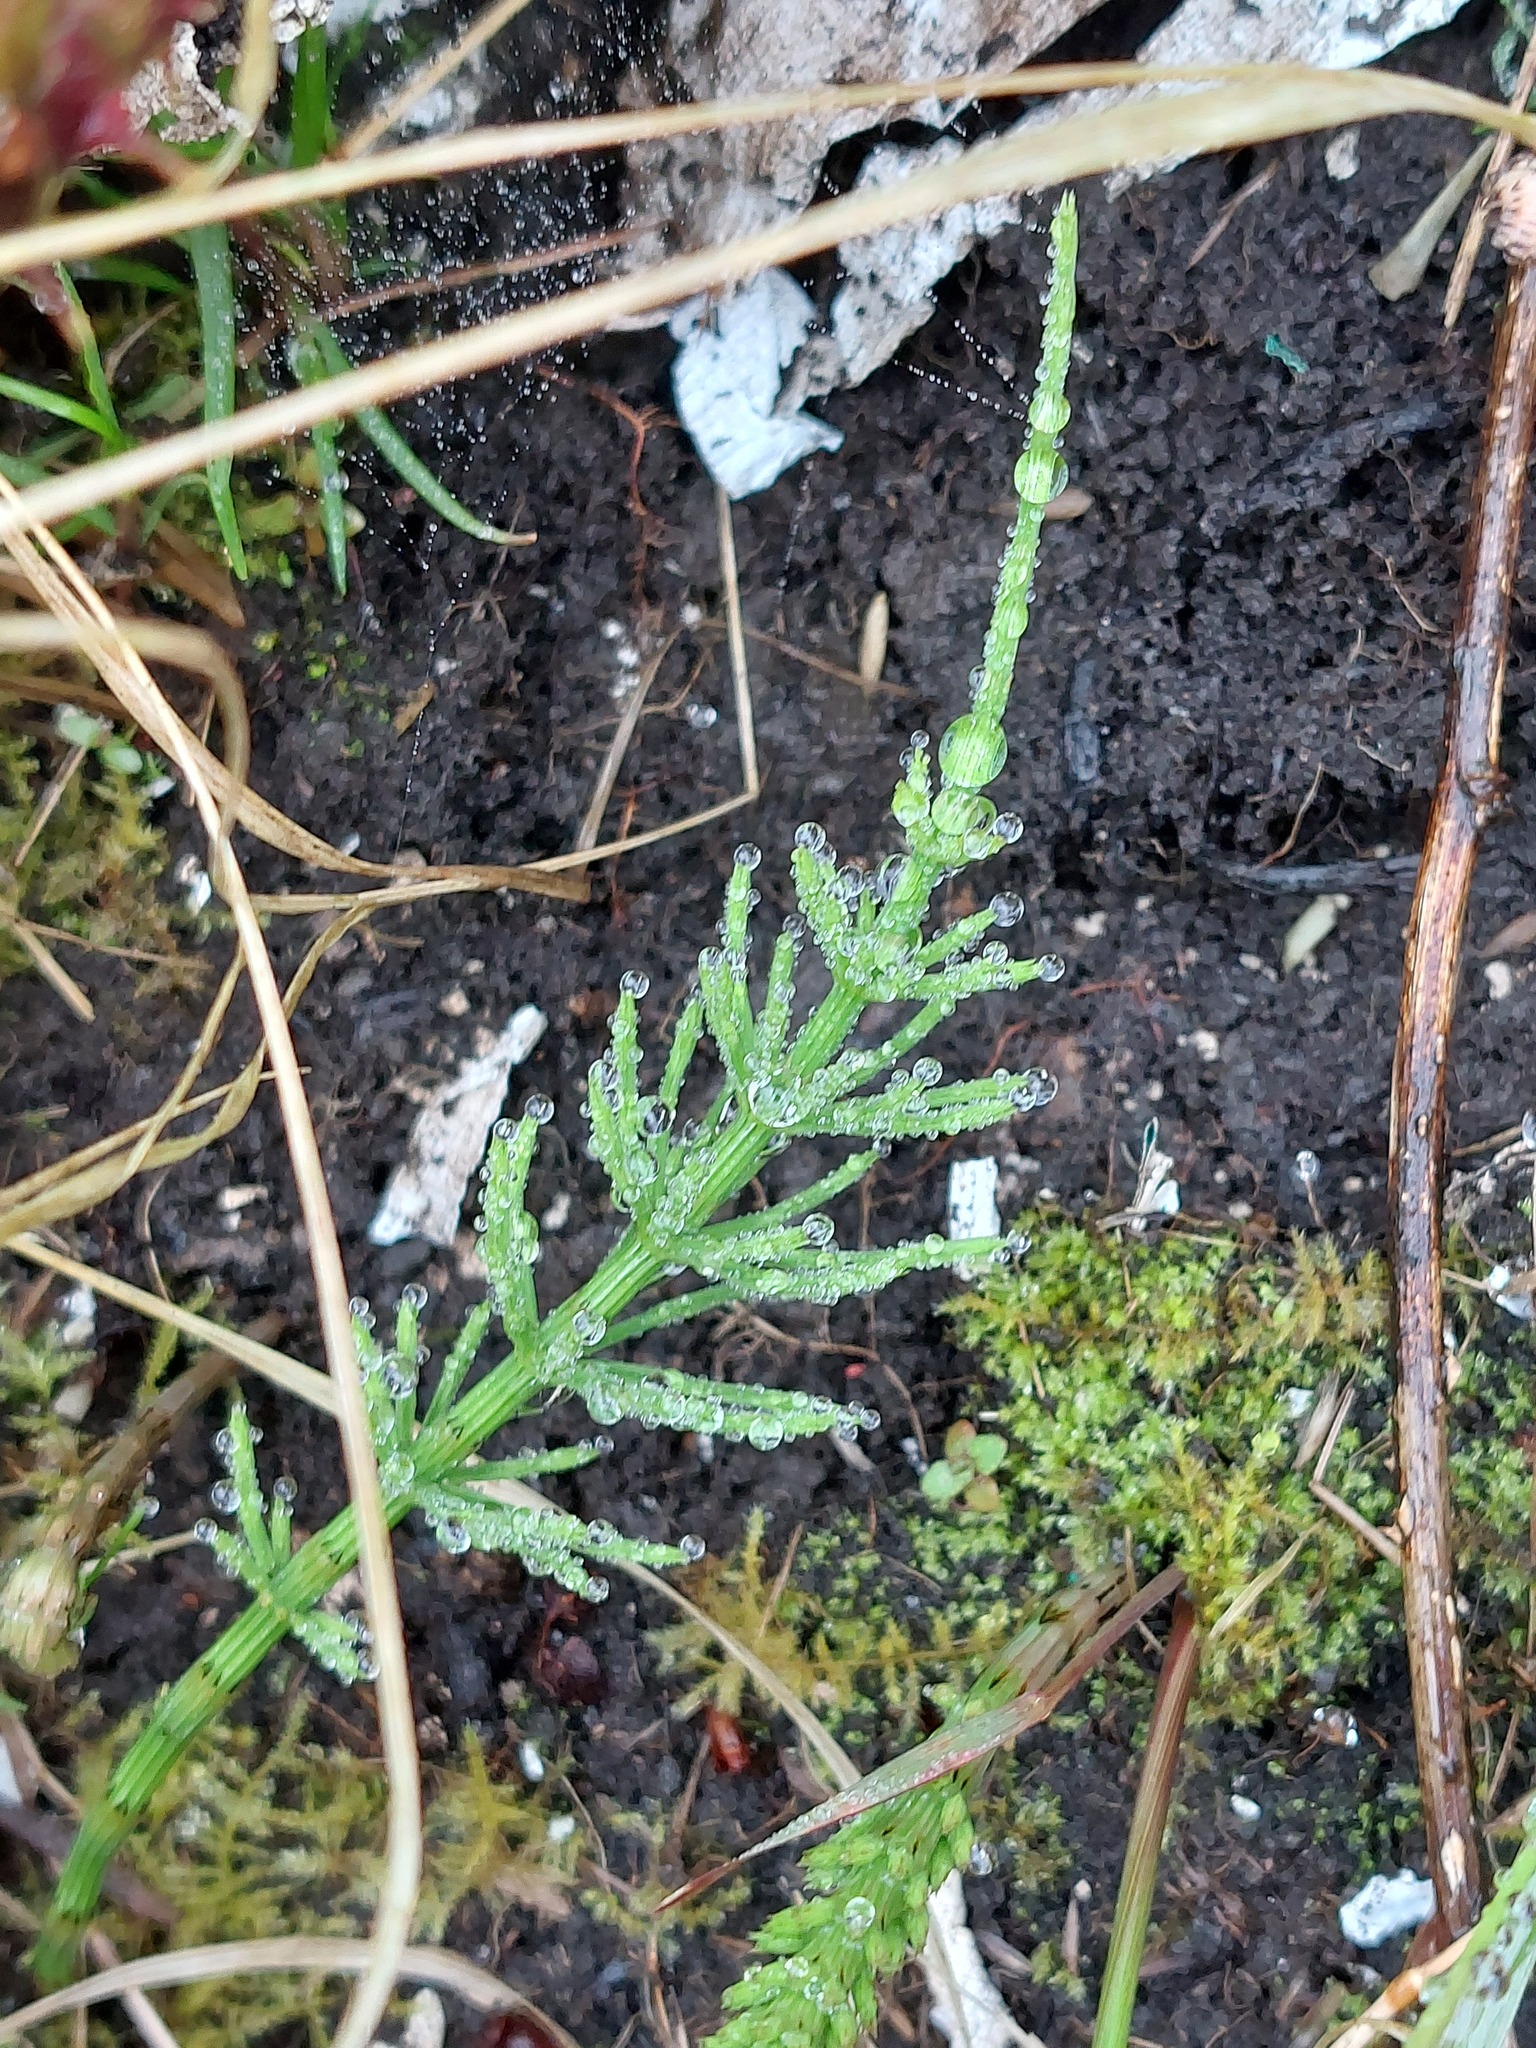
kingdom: Plantae
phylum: Tracheophyta
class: Polypodiopsida
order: Equisetales
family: Equisetaceae
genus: Equisetum
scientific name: Equisetum arvense
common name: Field horsetail
